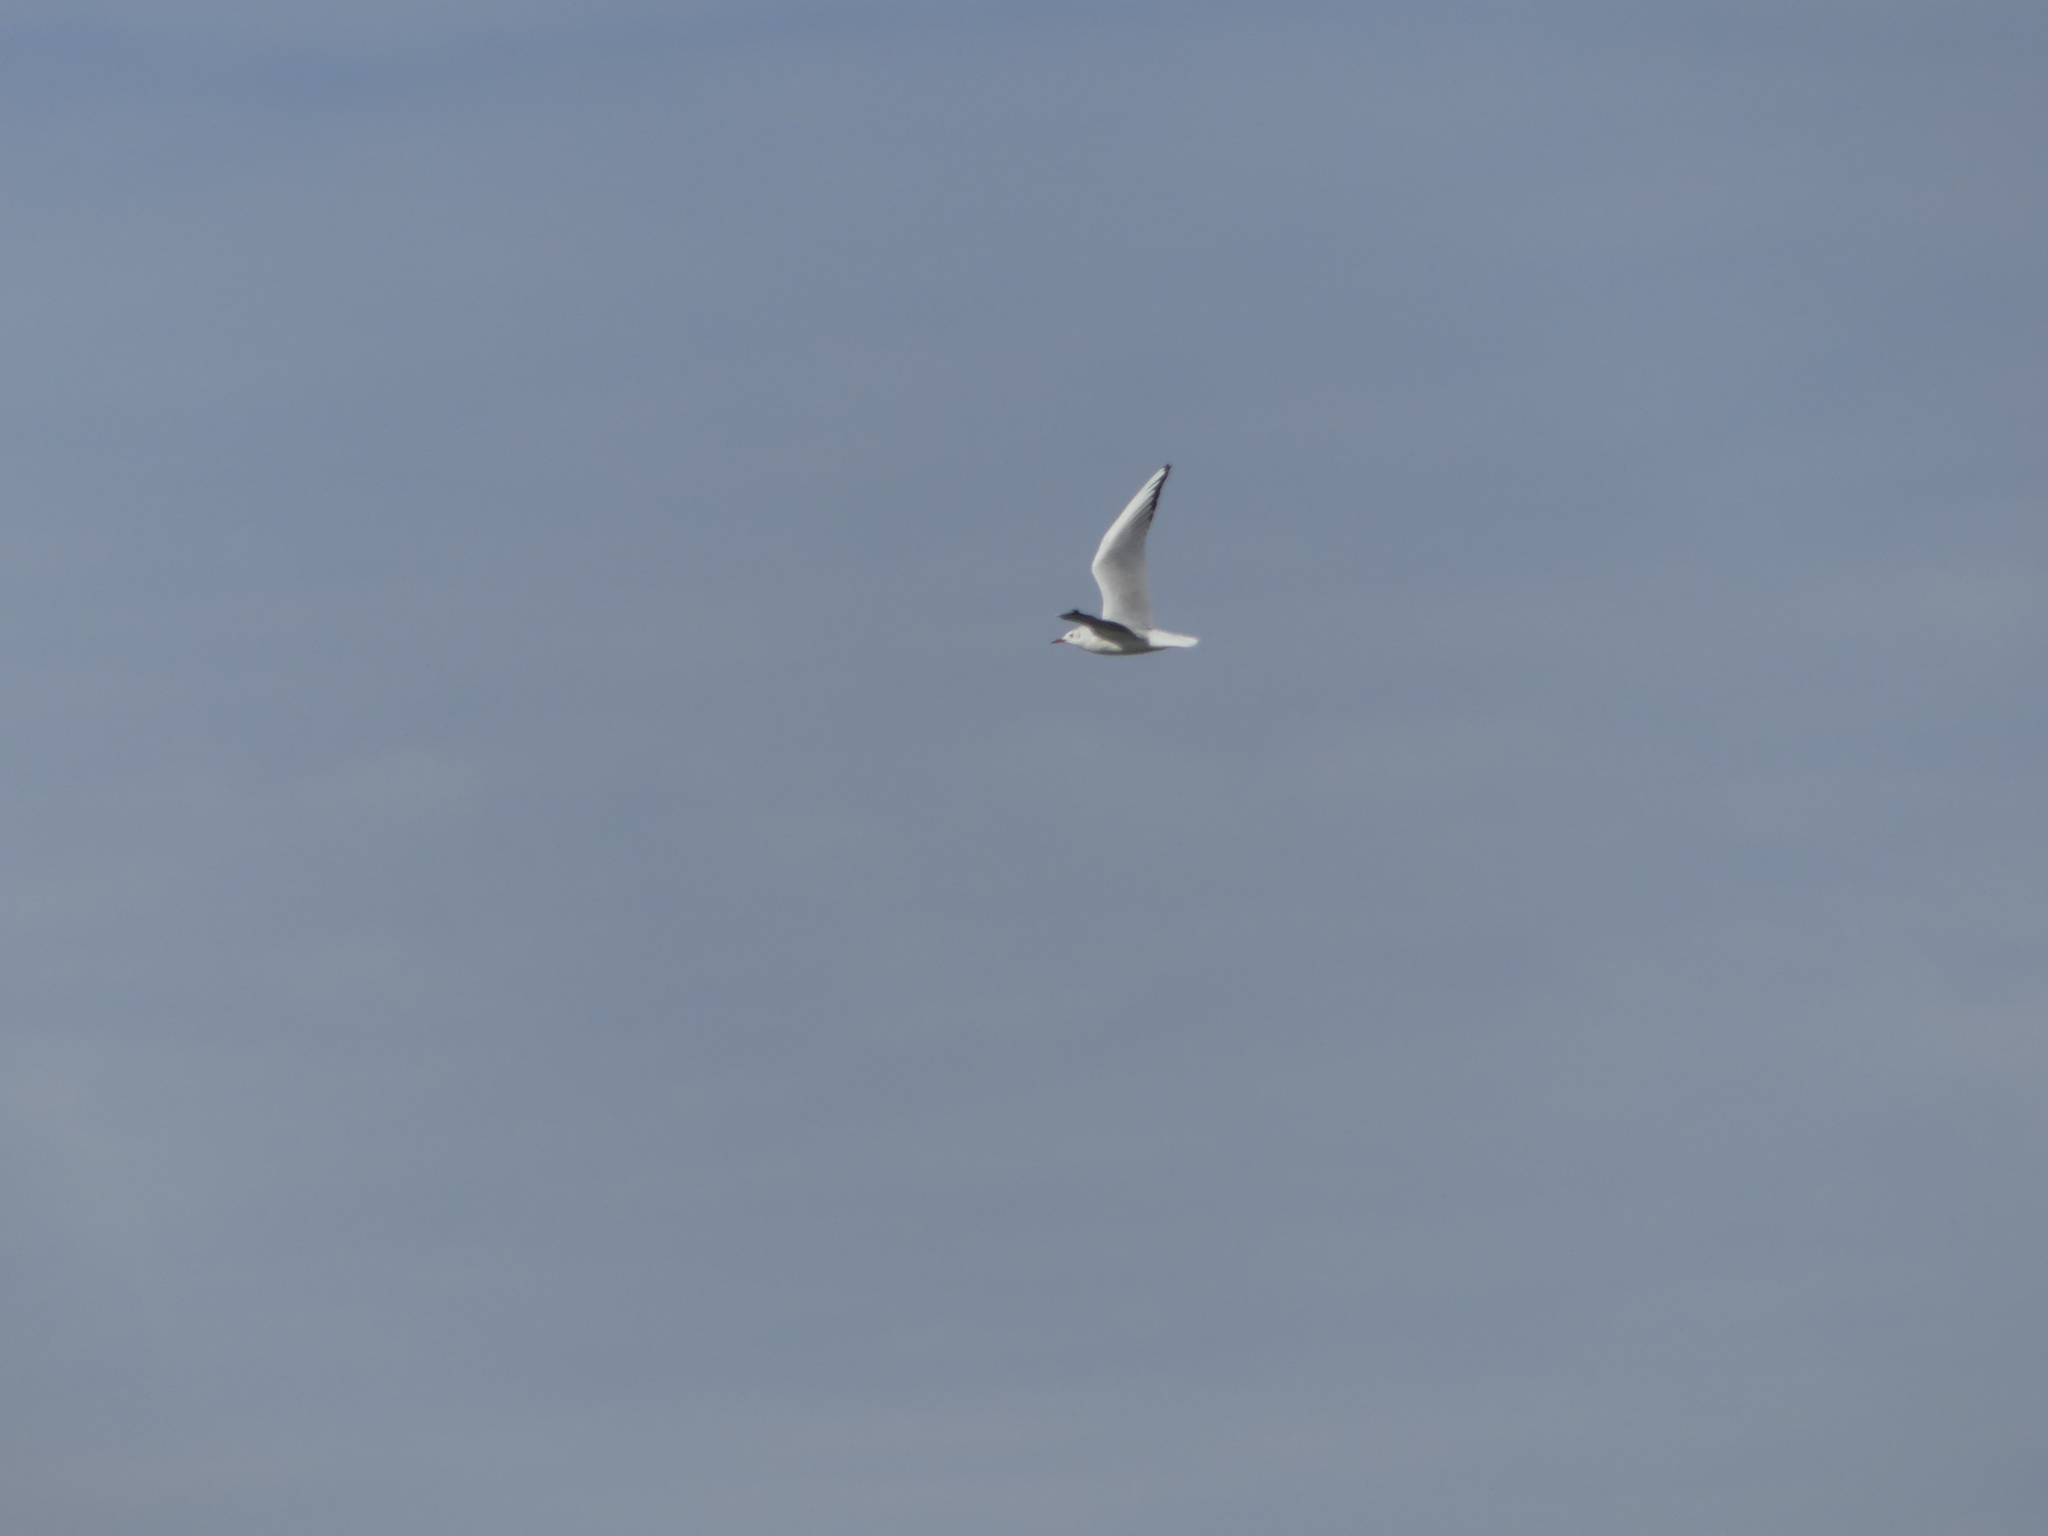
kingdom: Animalia
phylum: Chordata
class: Aves
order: Charadriiformes
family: Laridae
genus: Chroicocephalus
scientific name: Chroicocephalus ridibundus
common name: Black-headed gull
